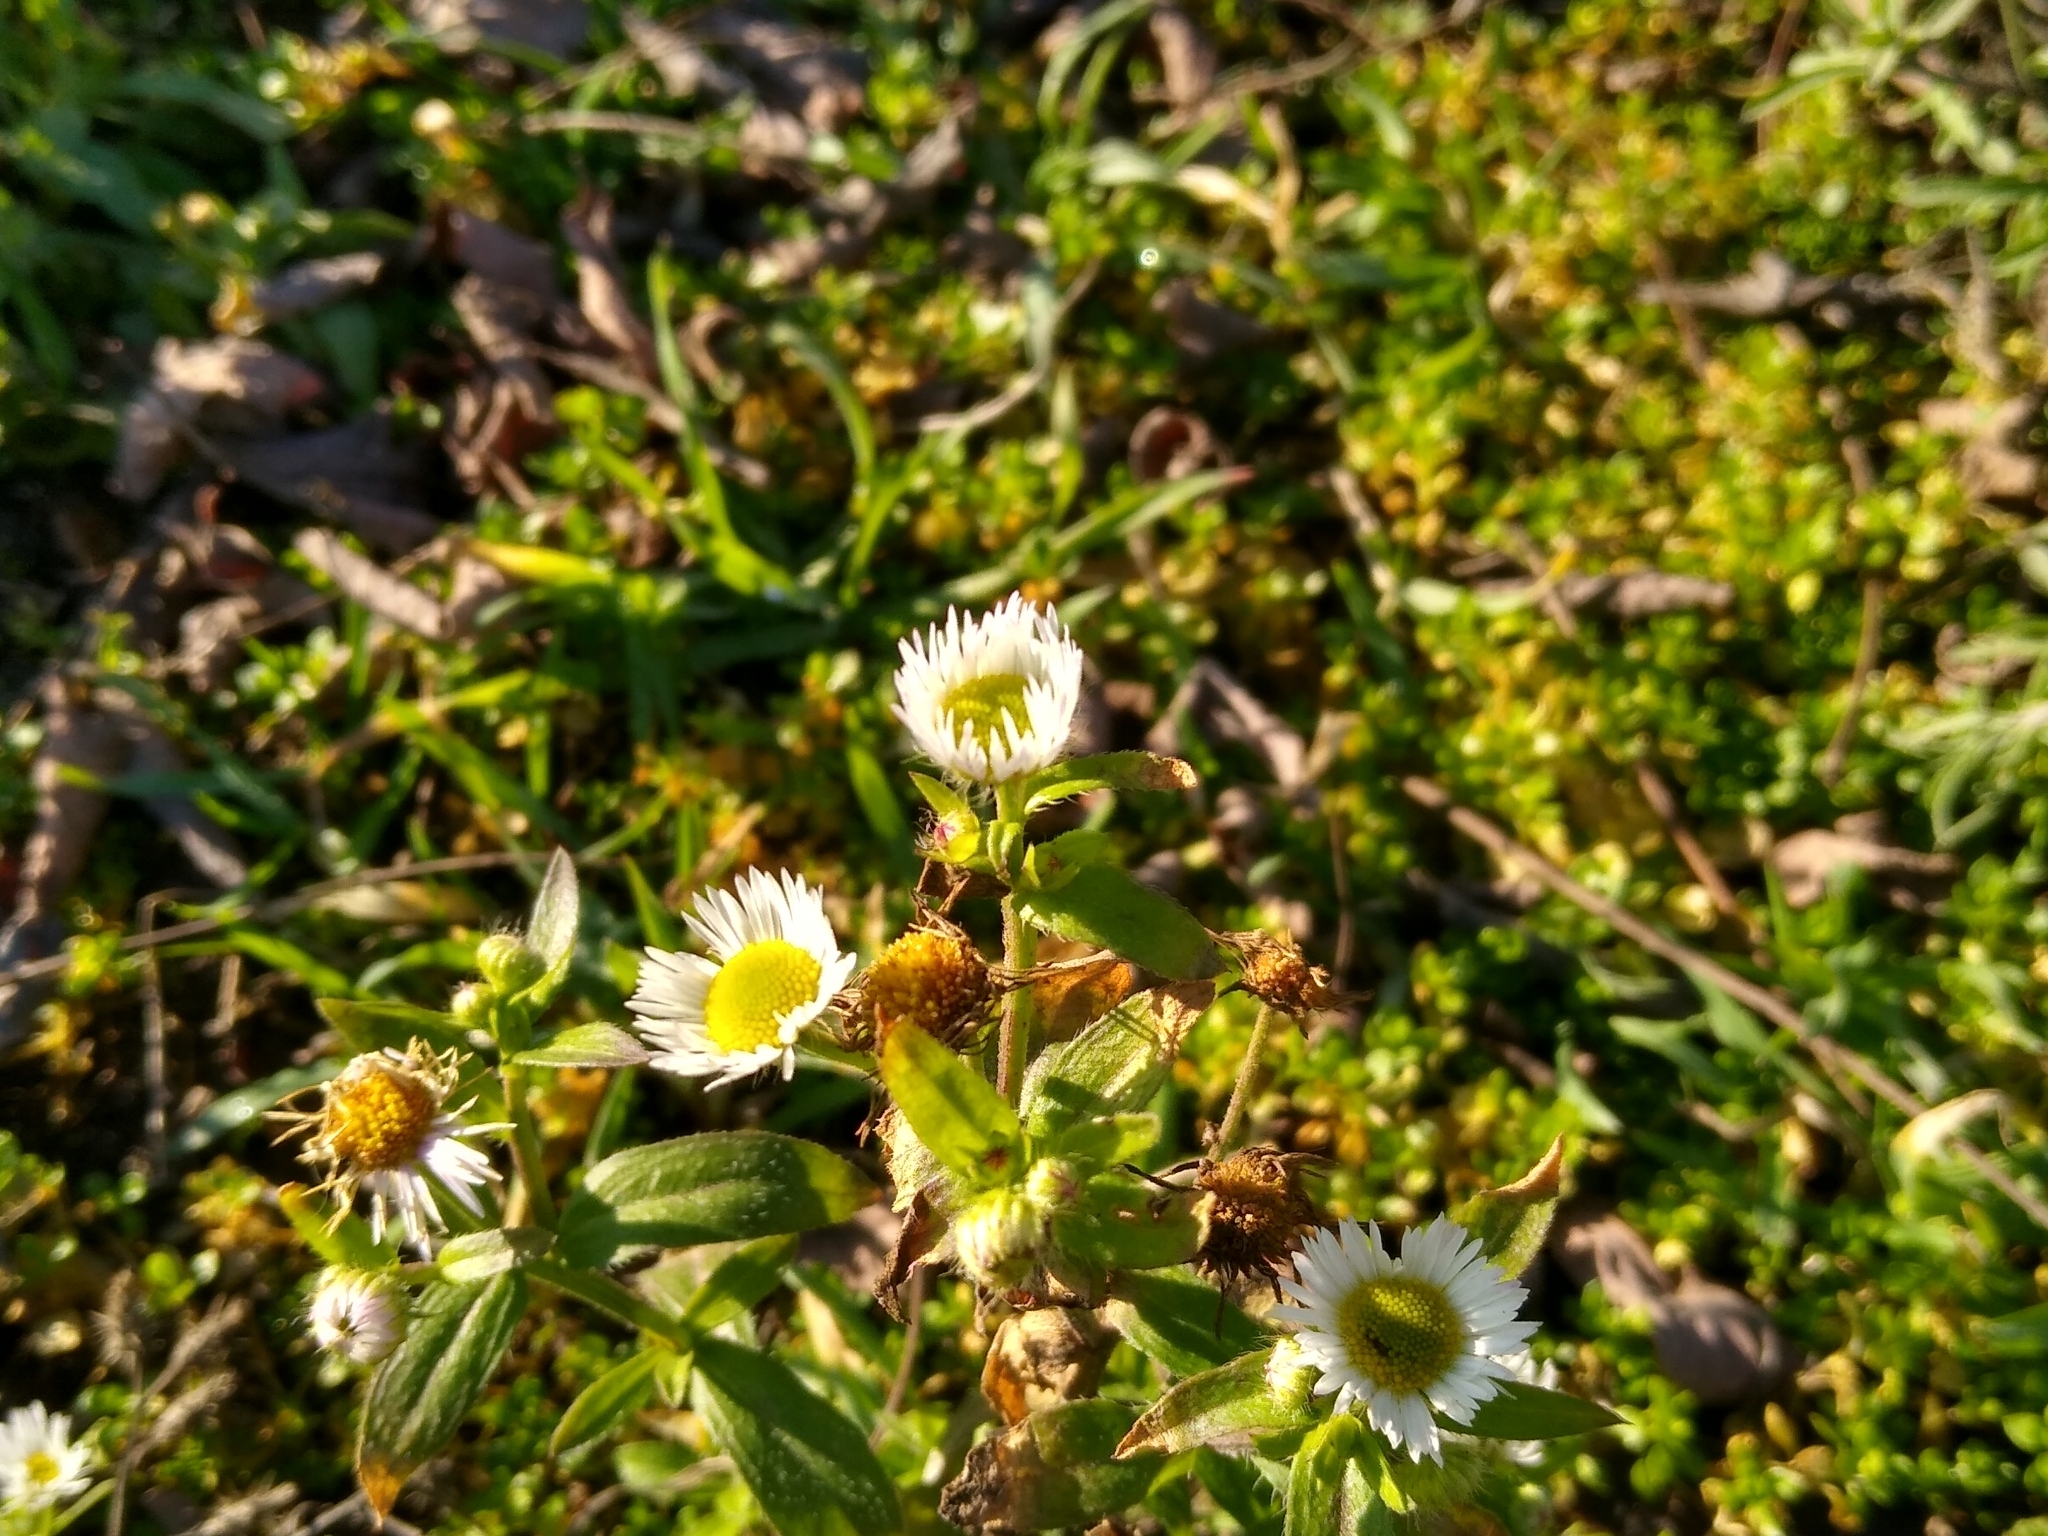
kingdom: Plantae
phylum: Tracheophyta
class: Magnoliopsida
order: Asterales
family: Asteraceae
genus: Erigeron
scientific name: Erigeron annuus
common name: Tall fleabane
